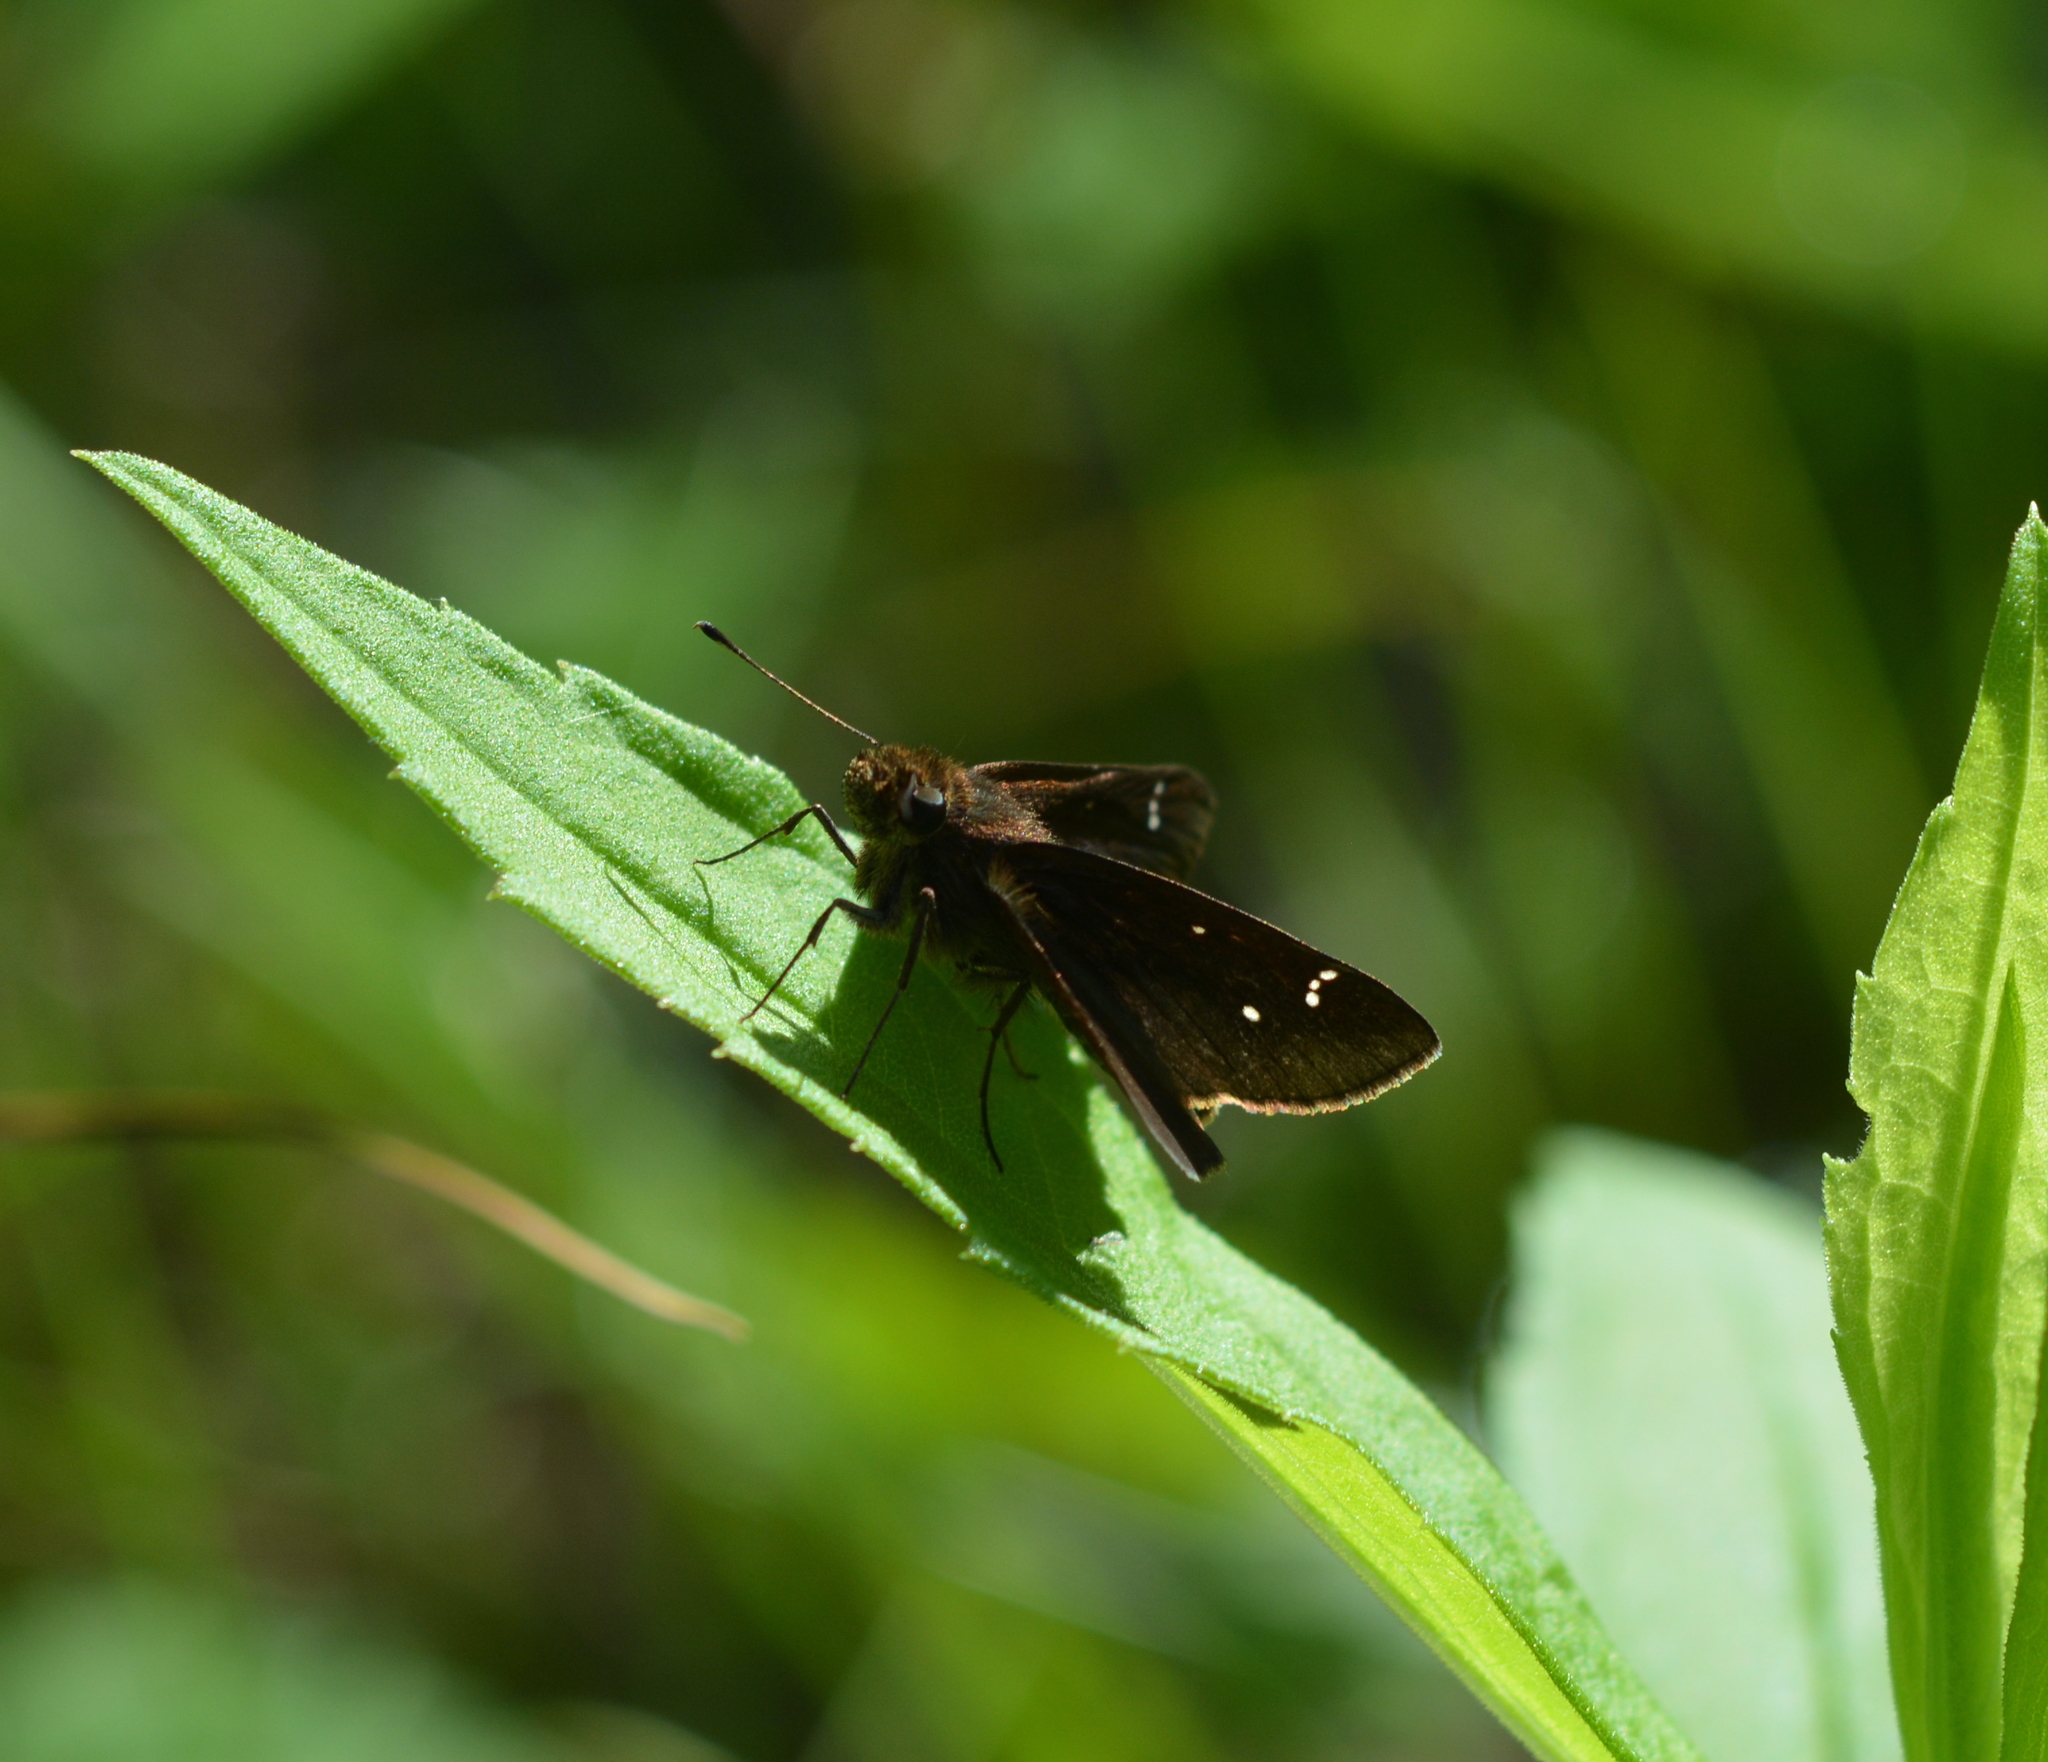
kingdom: Animalia
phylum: Arthropoda
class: Insecta
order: Lepidoptera
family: Hesperiidae
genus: Lerema
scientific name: Lerema accius
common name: Clouded skipper
